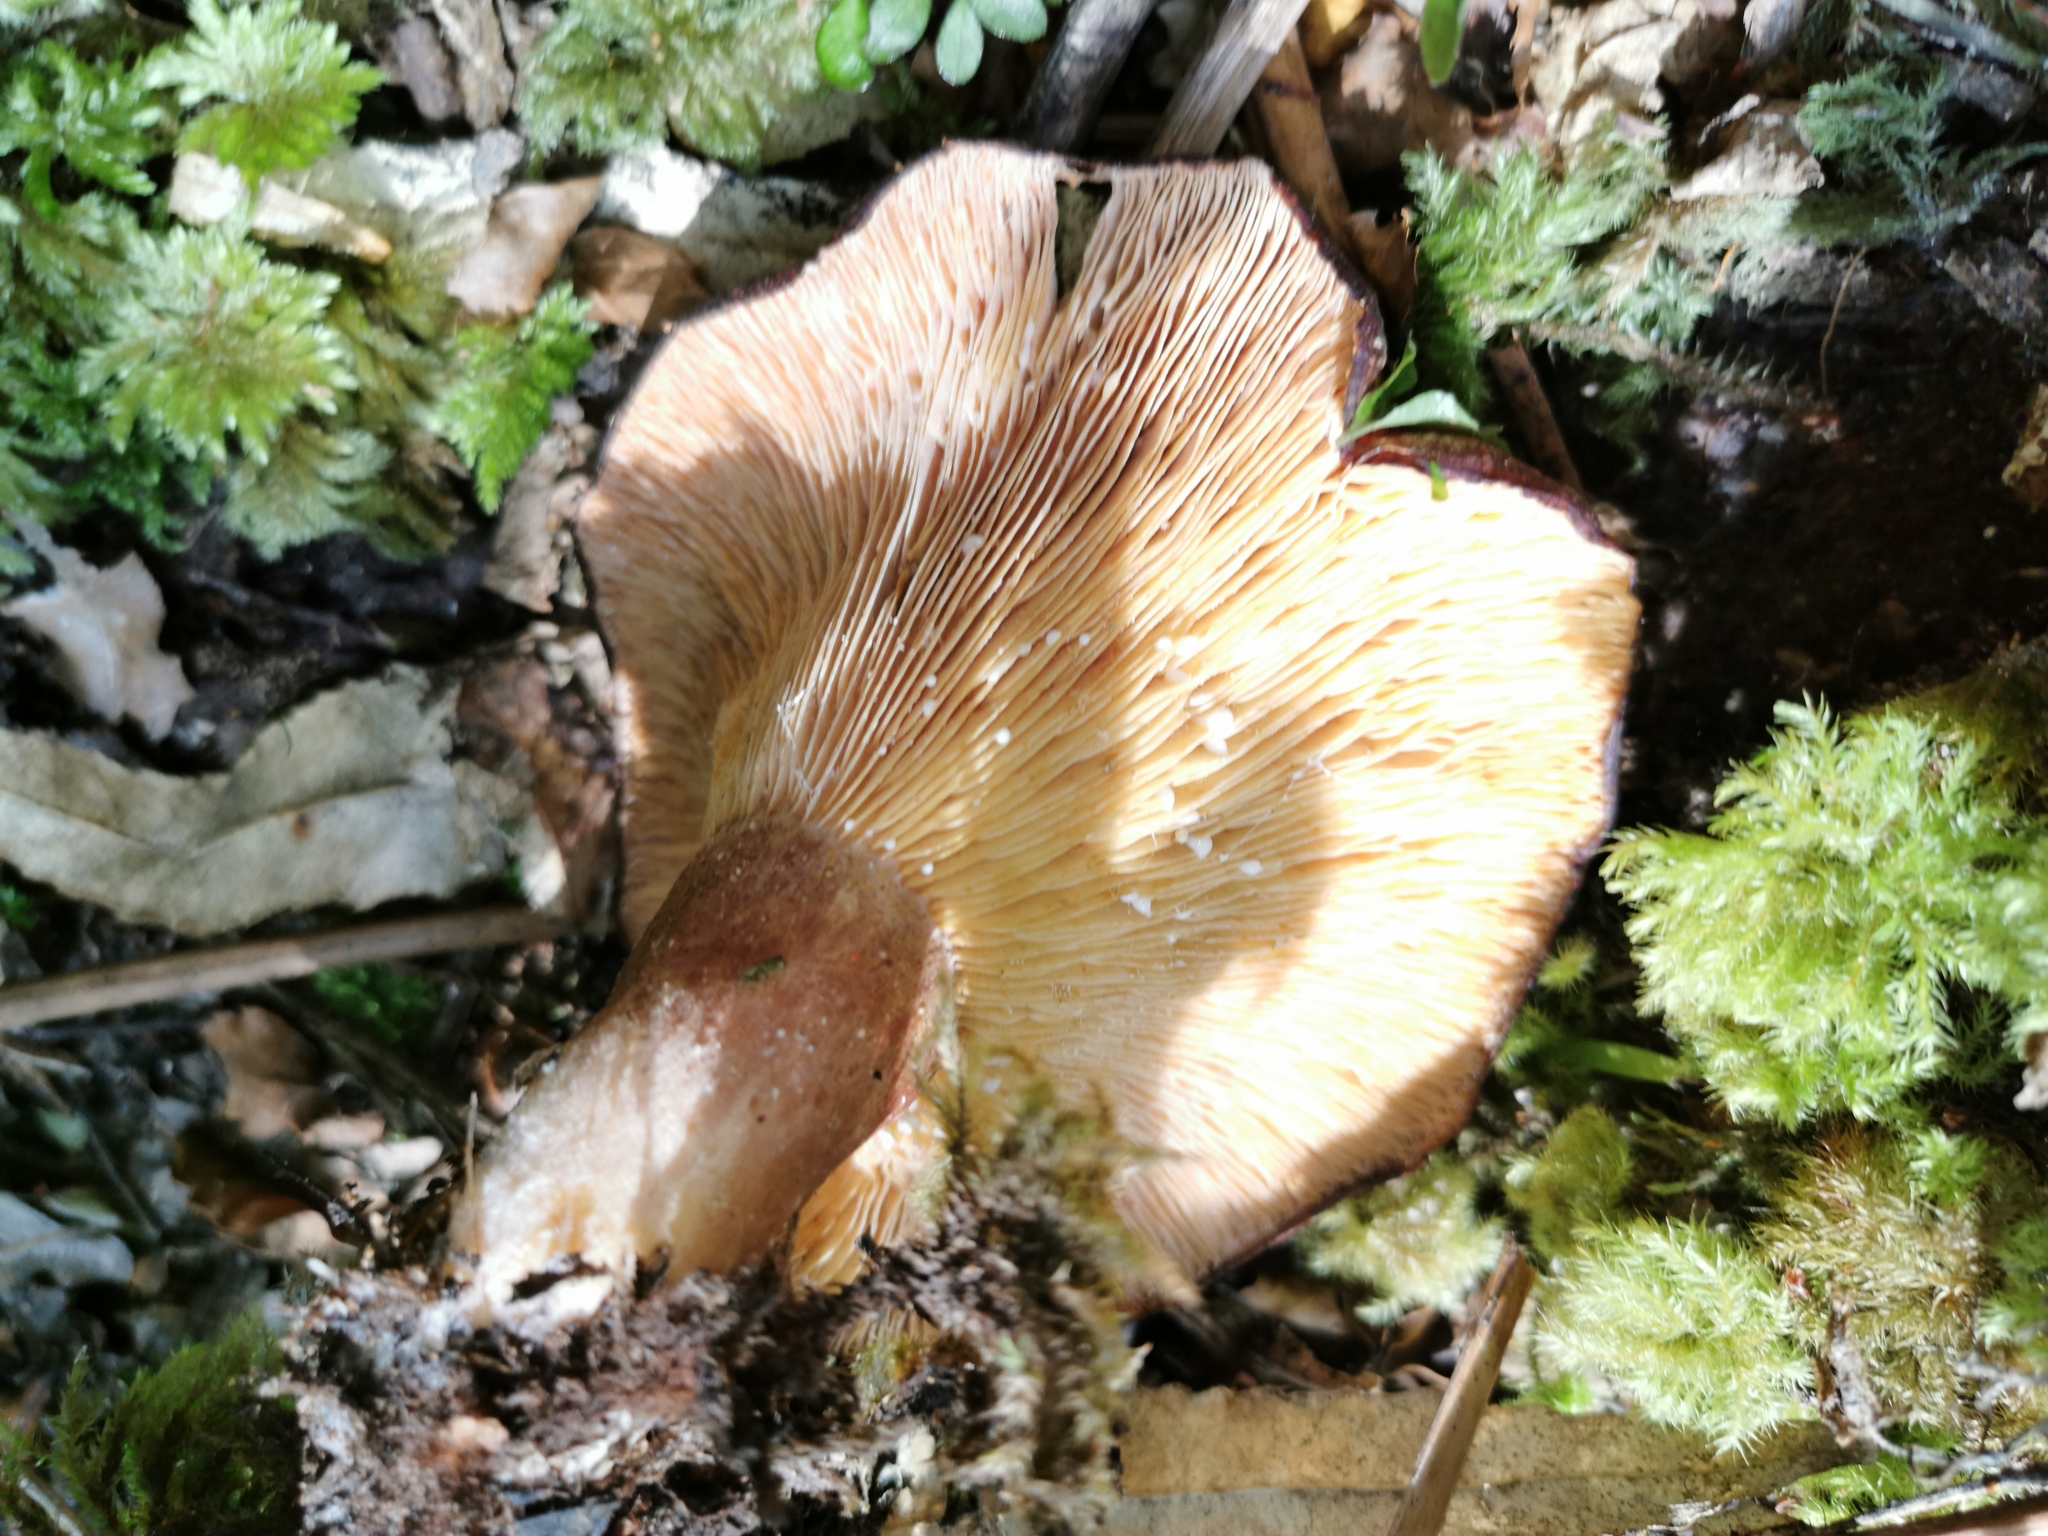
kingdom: Fungi
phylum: Basidiomycota
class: Agaricomycetes
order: Russulales
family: Russulaceae
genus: Lactarius
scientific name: Lactarius tawai
